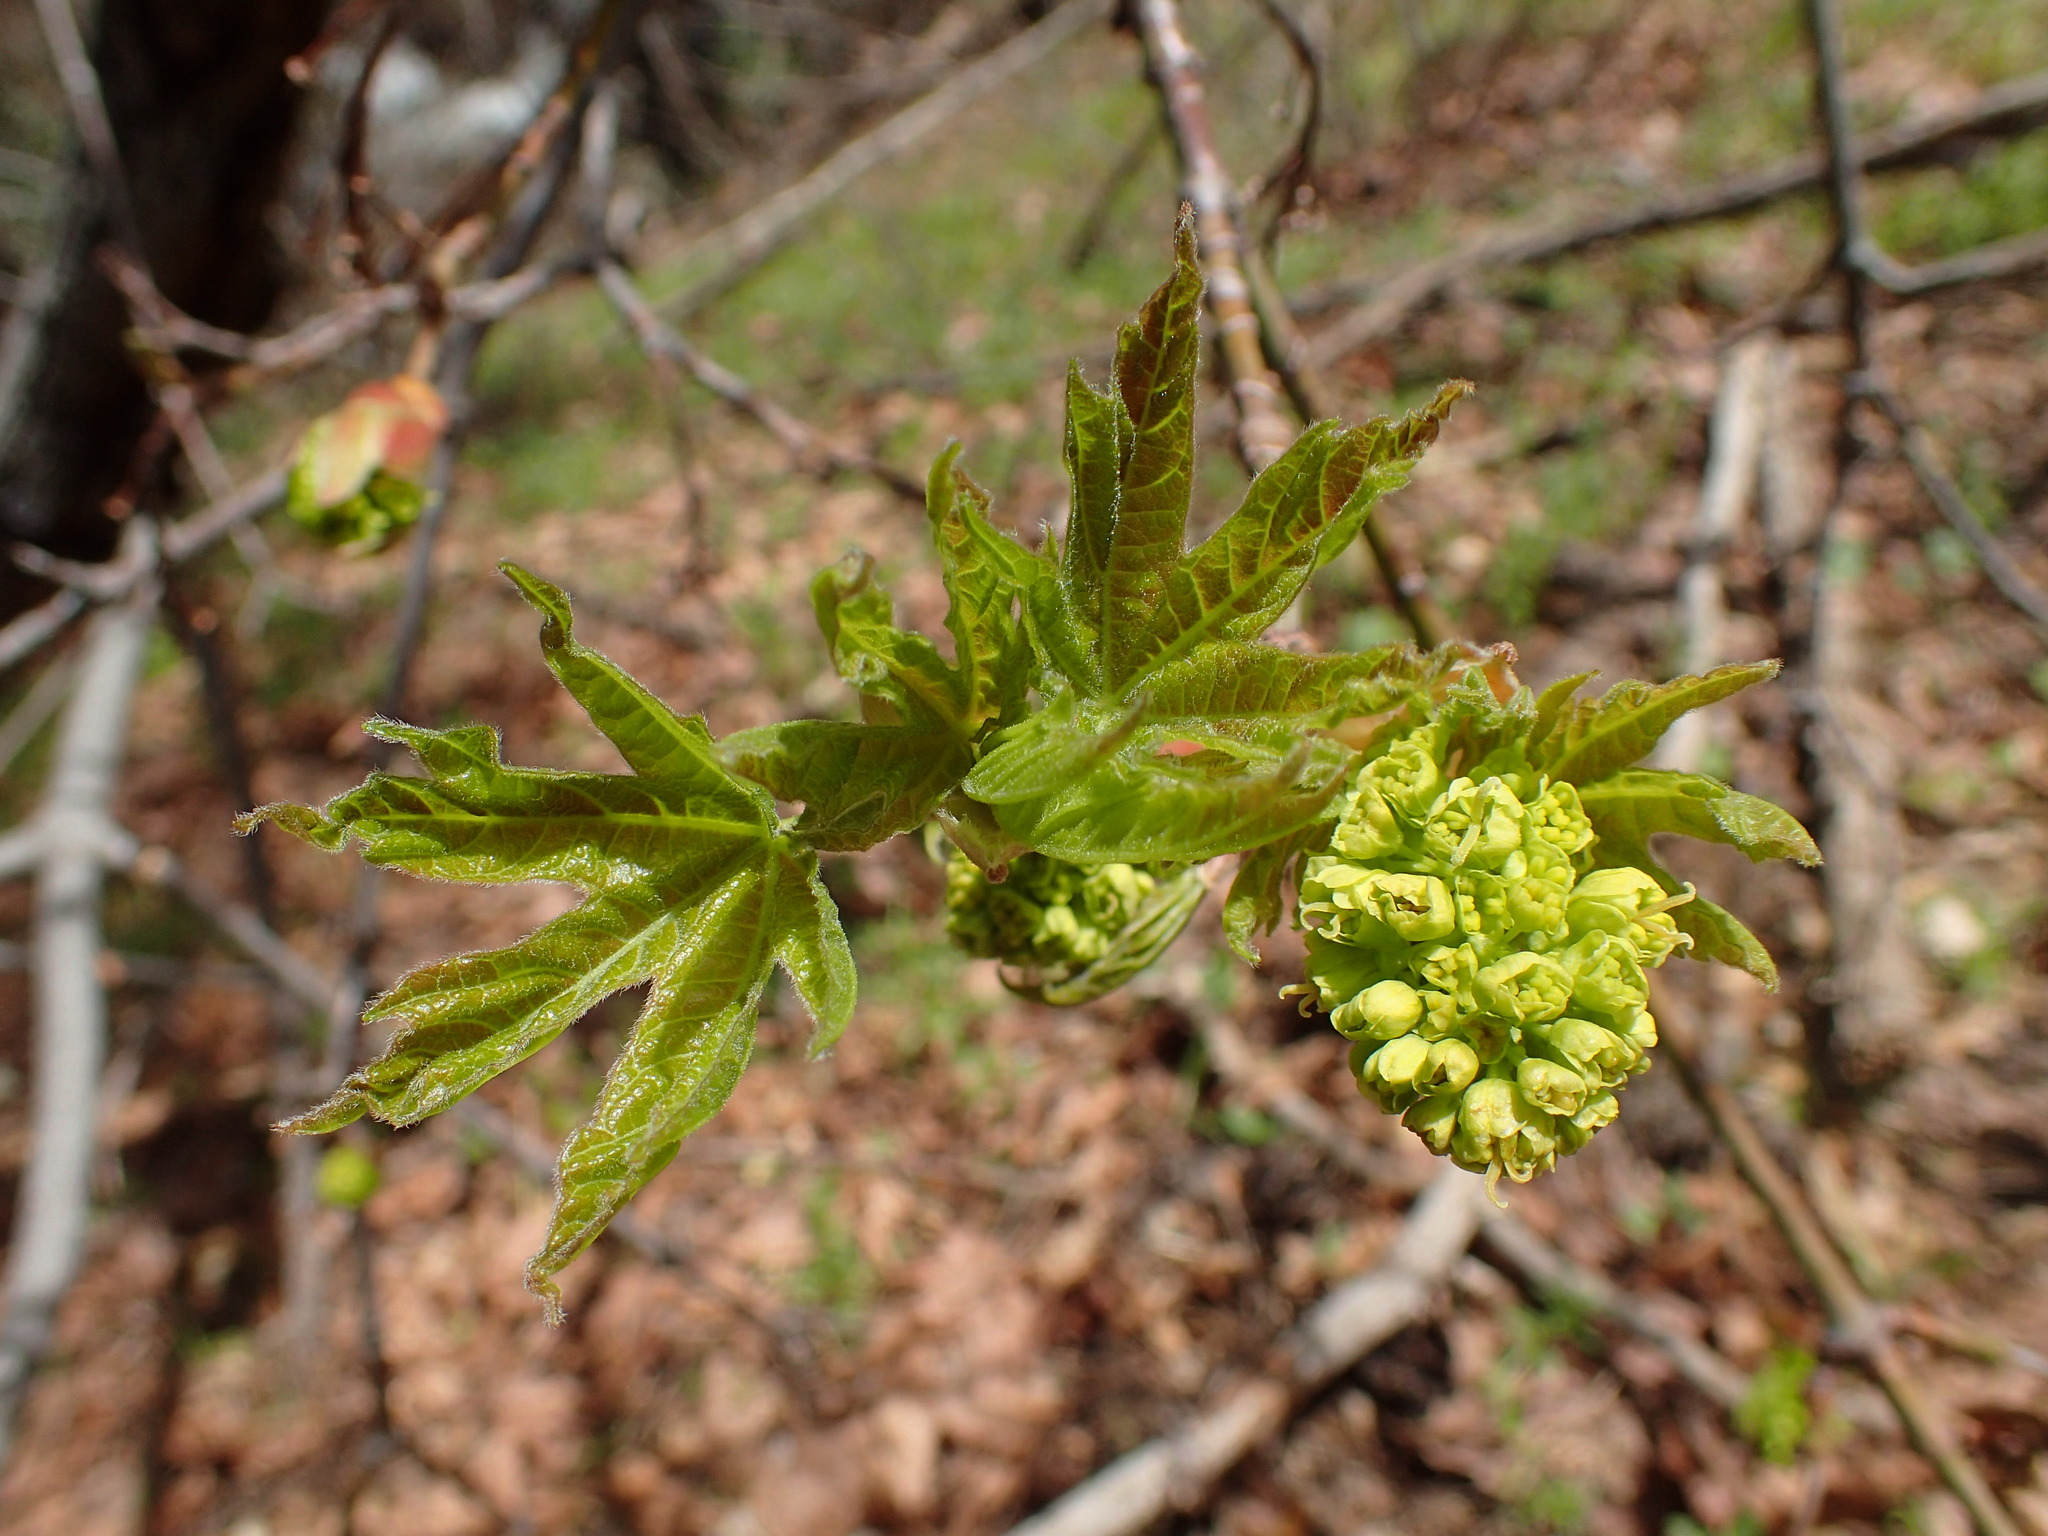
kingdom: Plantae
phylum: Tracheophyta
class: Magnoliopsida
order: Sapindales
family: Sapindaceae
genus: Acer
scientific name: Acer macrophyllum
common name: Oregon maple
